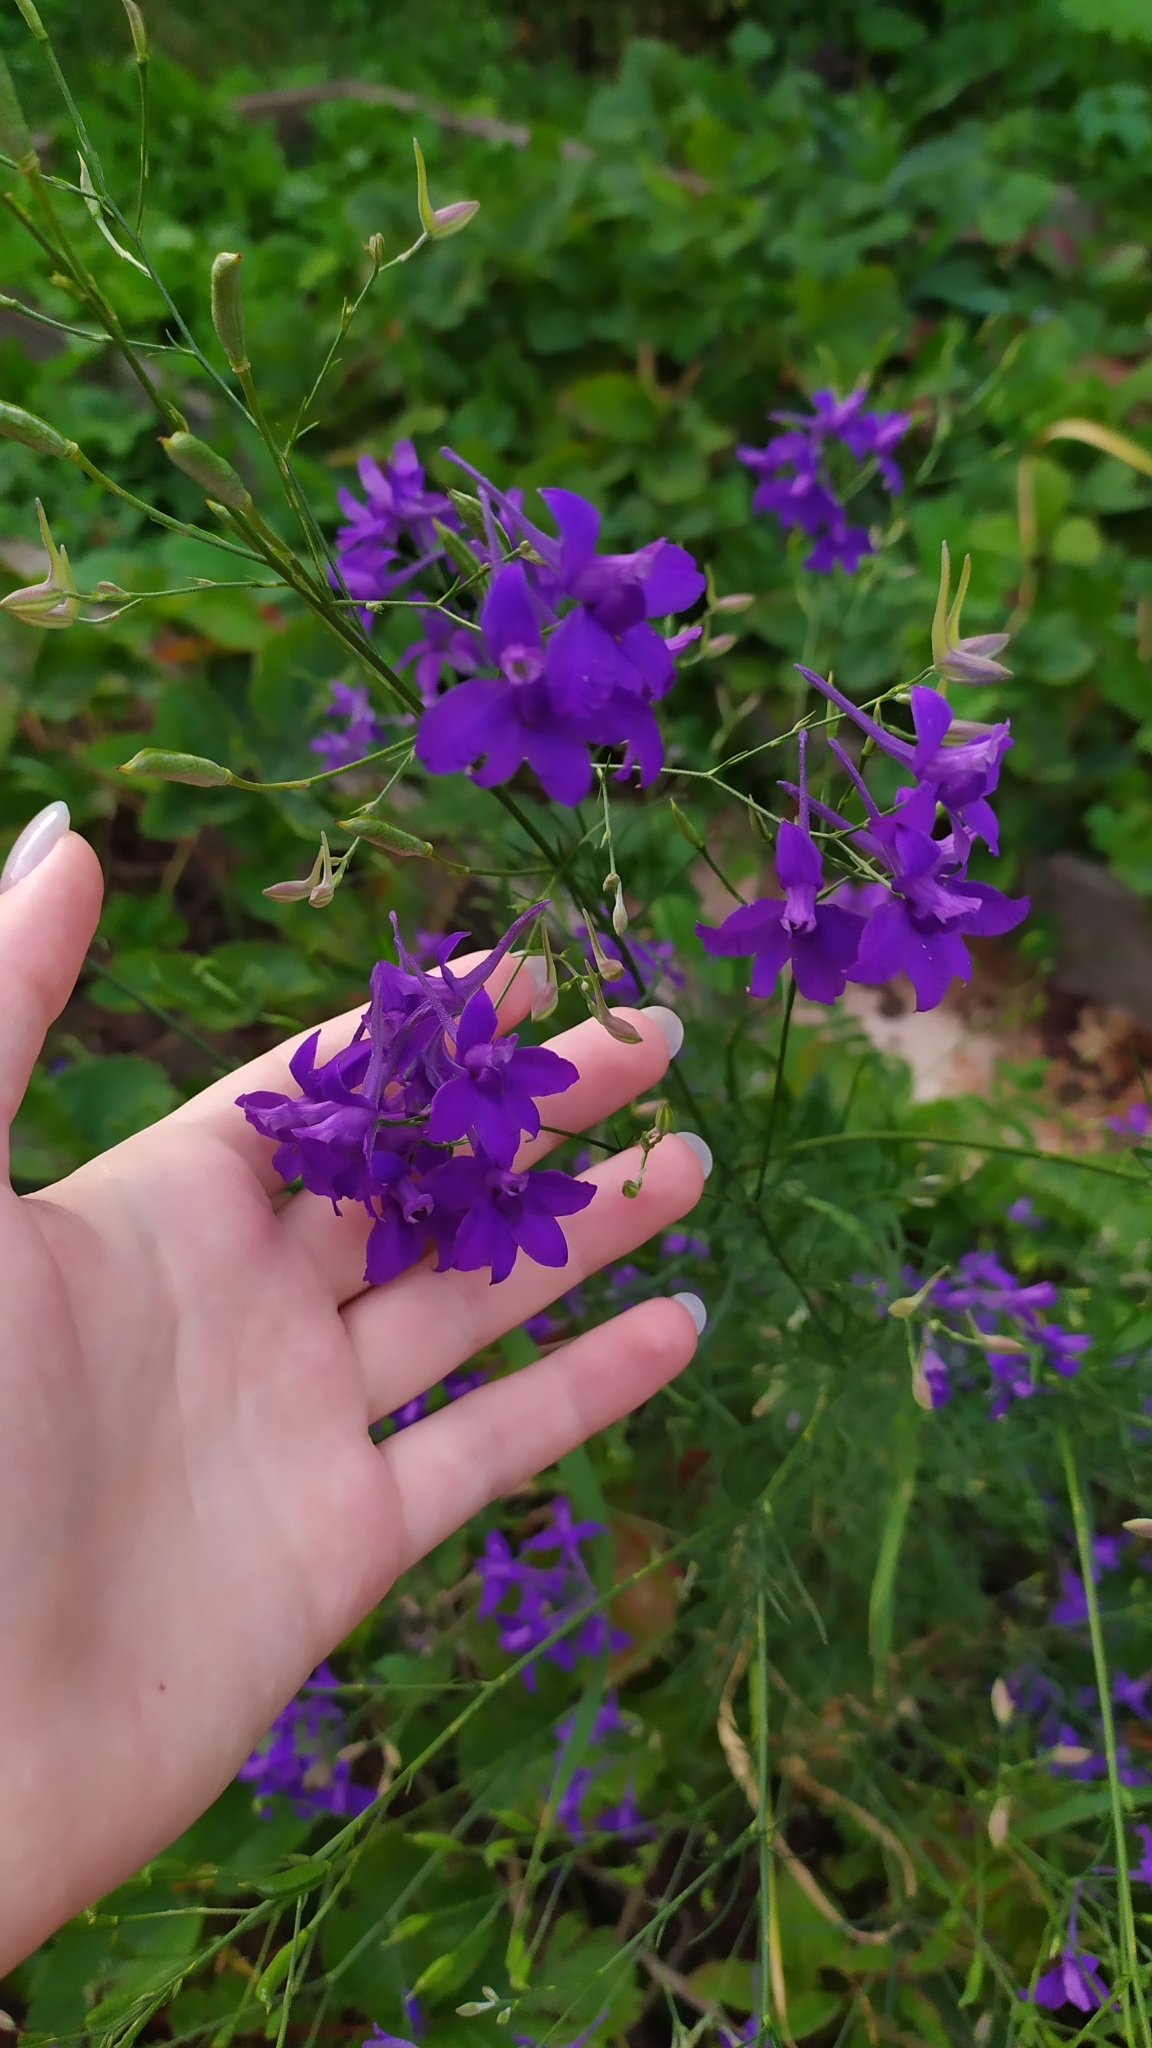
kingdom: Plantae
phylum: Tracheophyta
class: Magnoliopsida
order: Ranunculales
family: Ranunculaceae
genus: Delphinium
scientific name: Delphinium consolida
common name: Branching larkspur
